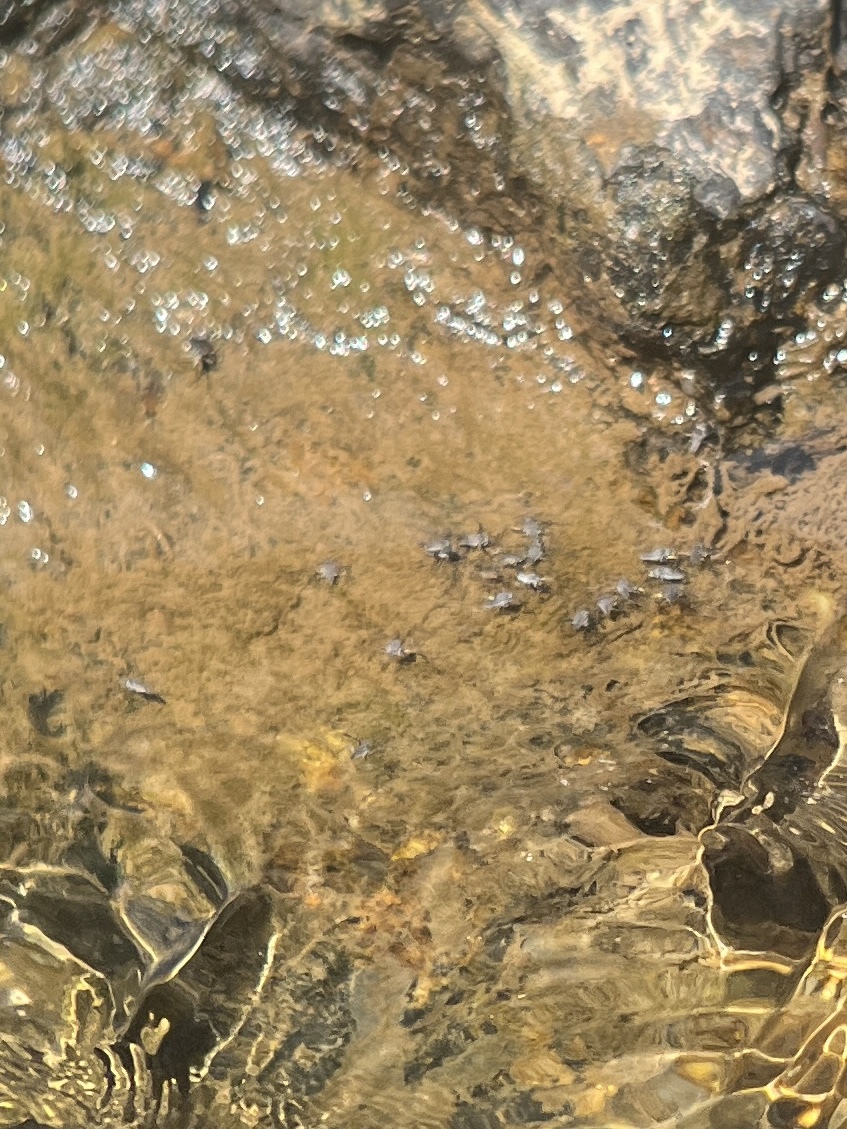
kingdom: Animalia
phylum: Arthropoda
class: Insecta
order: Hemiptera
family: Veliidae
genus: Rhagovelia
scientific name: Rhagovelia obesa
